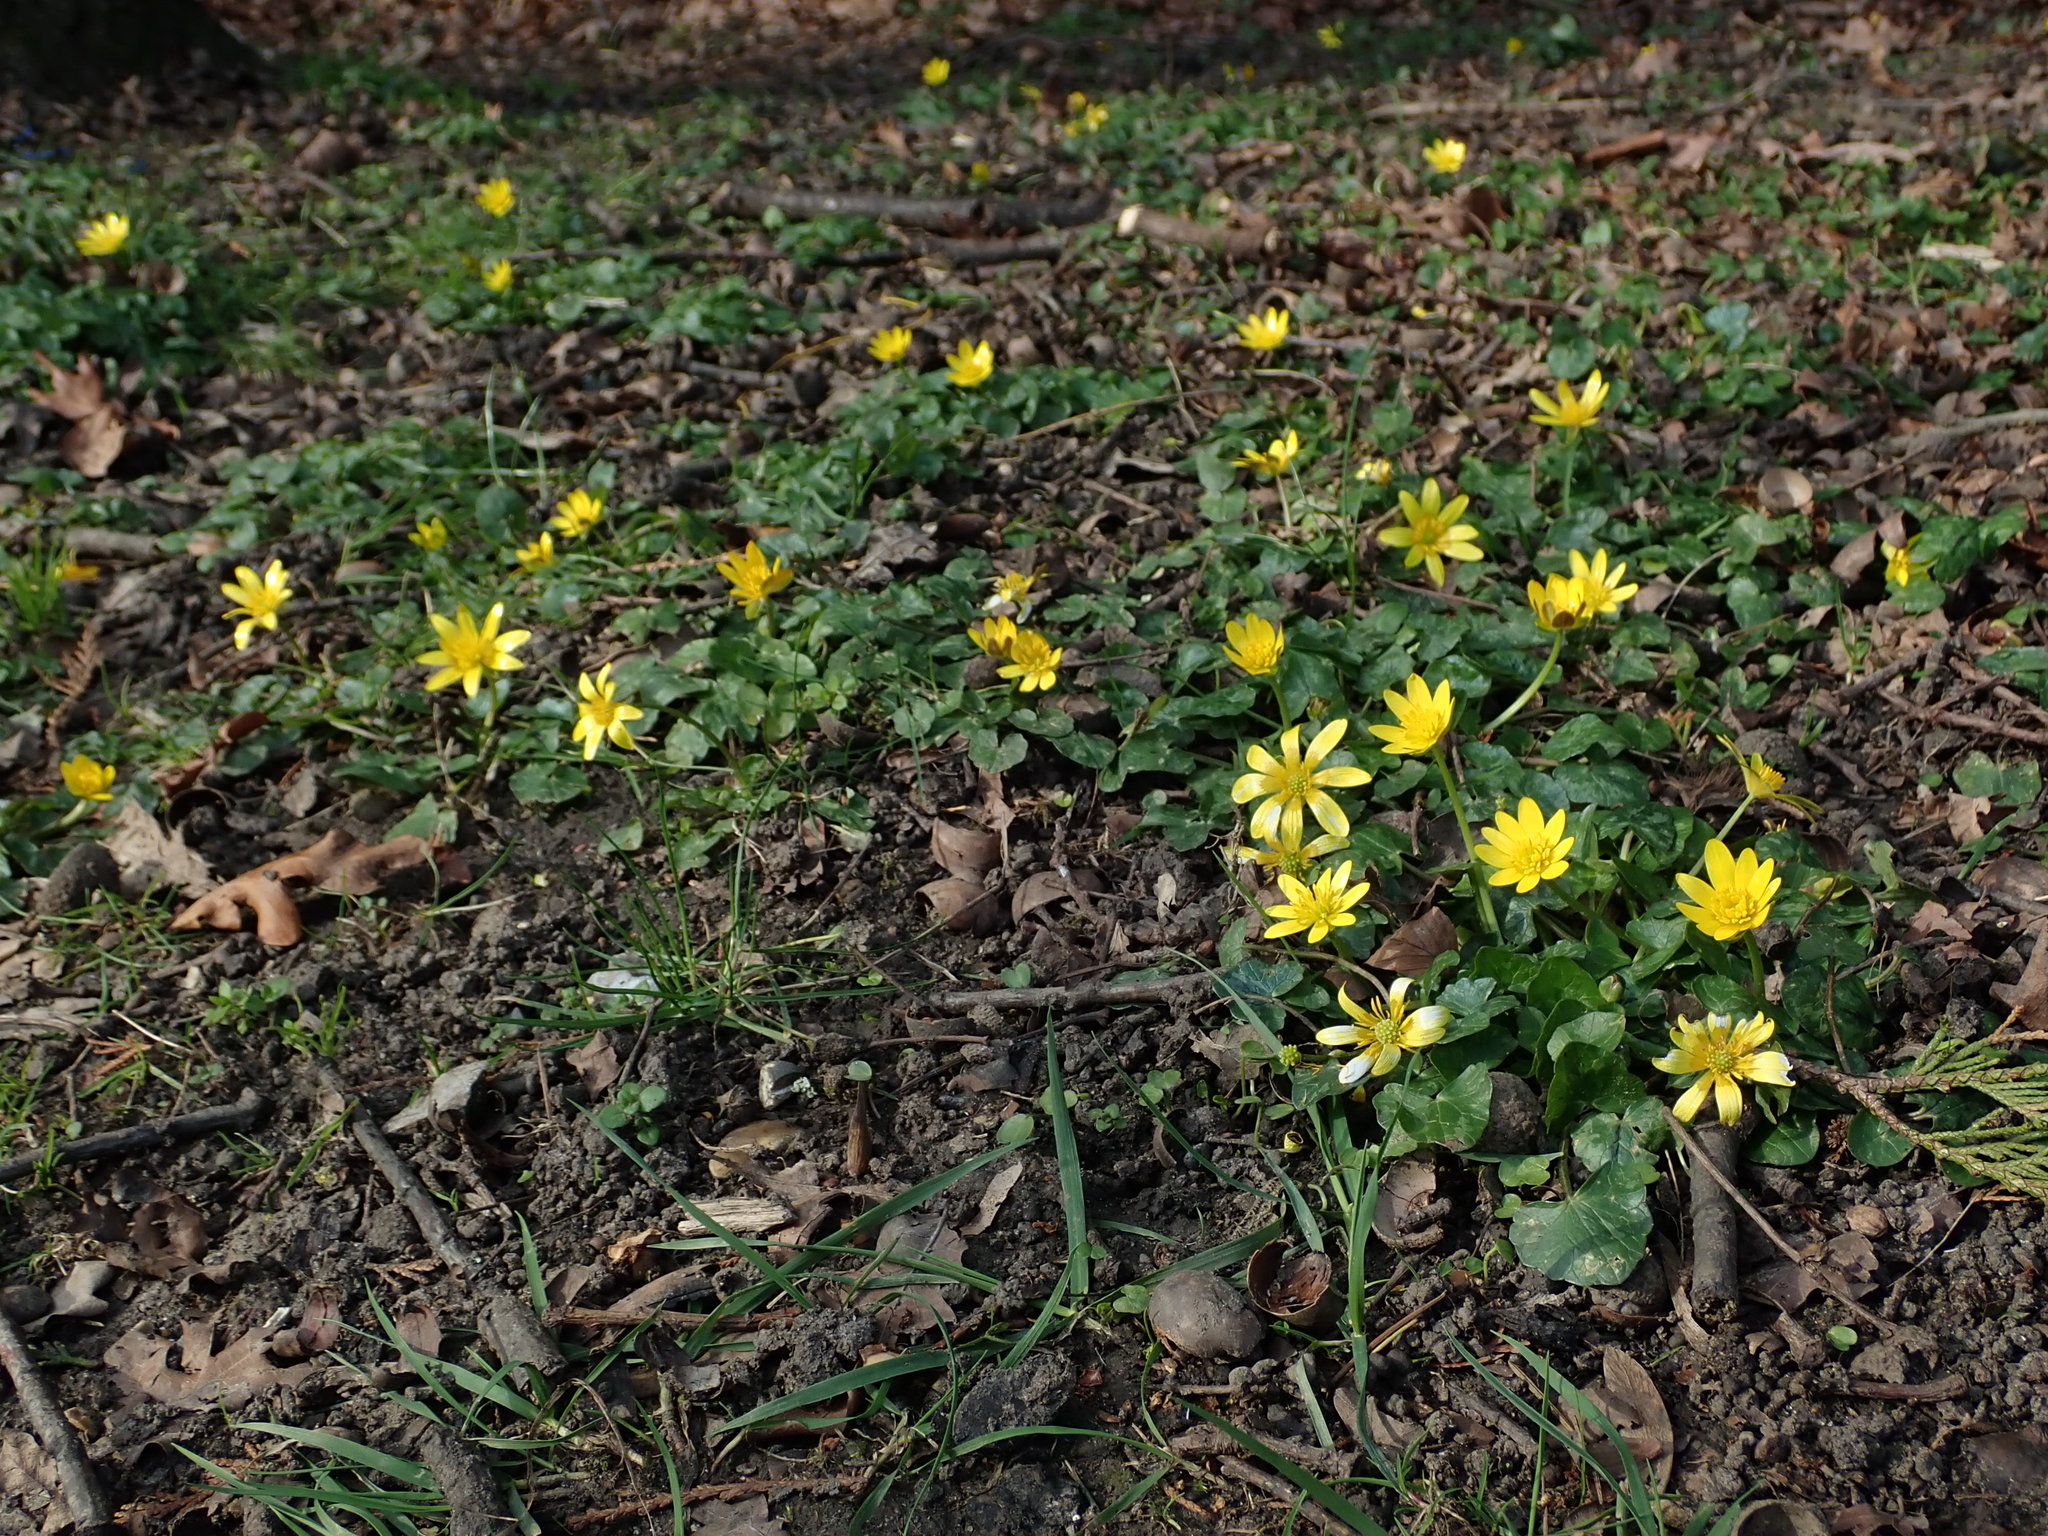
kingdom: Plantae
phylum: Tracheophyta
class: Magnoliopsida
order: Ranunculales
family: Ranunculaceae
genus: Ficaria
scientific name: Ficaria verna
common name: Lesser celandine
